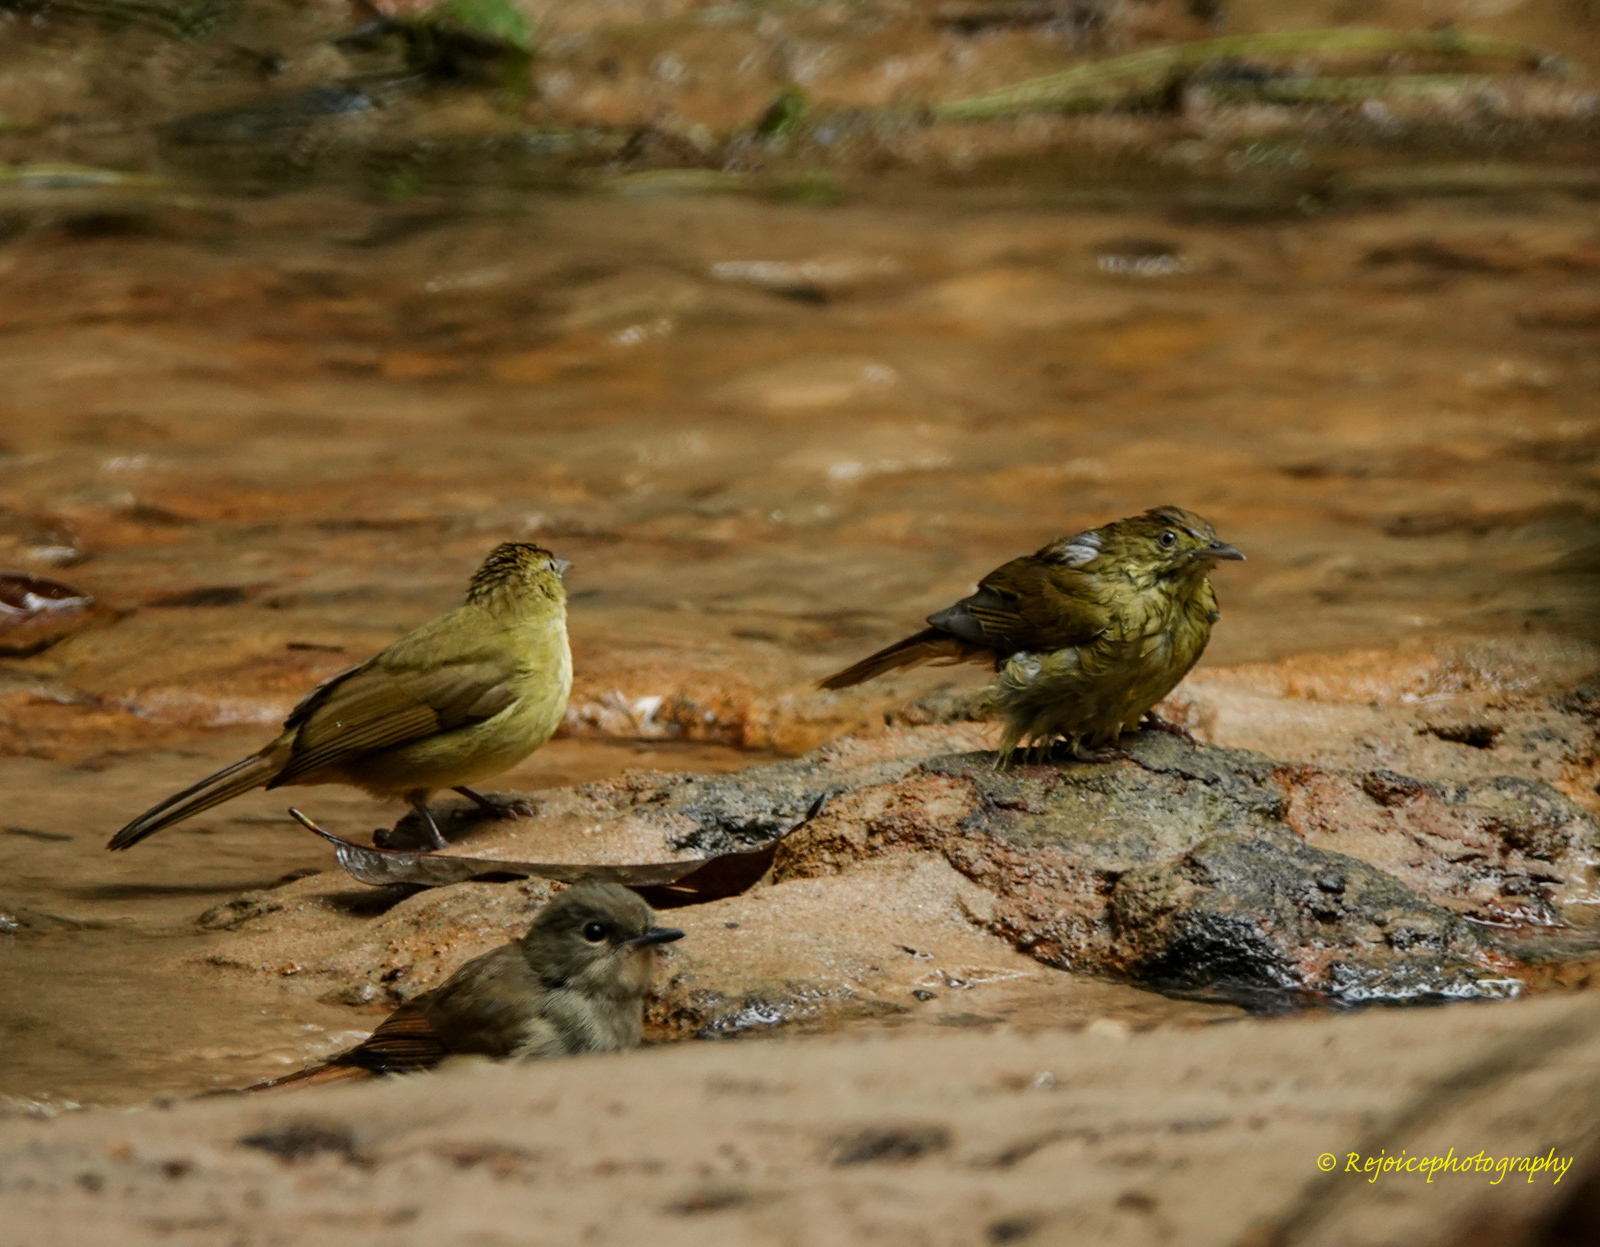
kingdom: Animalia
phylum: Chordata
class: Aves
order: Passeriformes
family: Pycnonotidae
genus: Iole
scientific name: Iole virescens
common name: Olive bulbul
